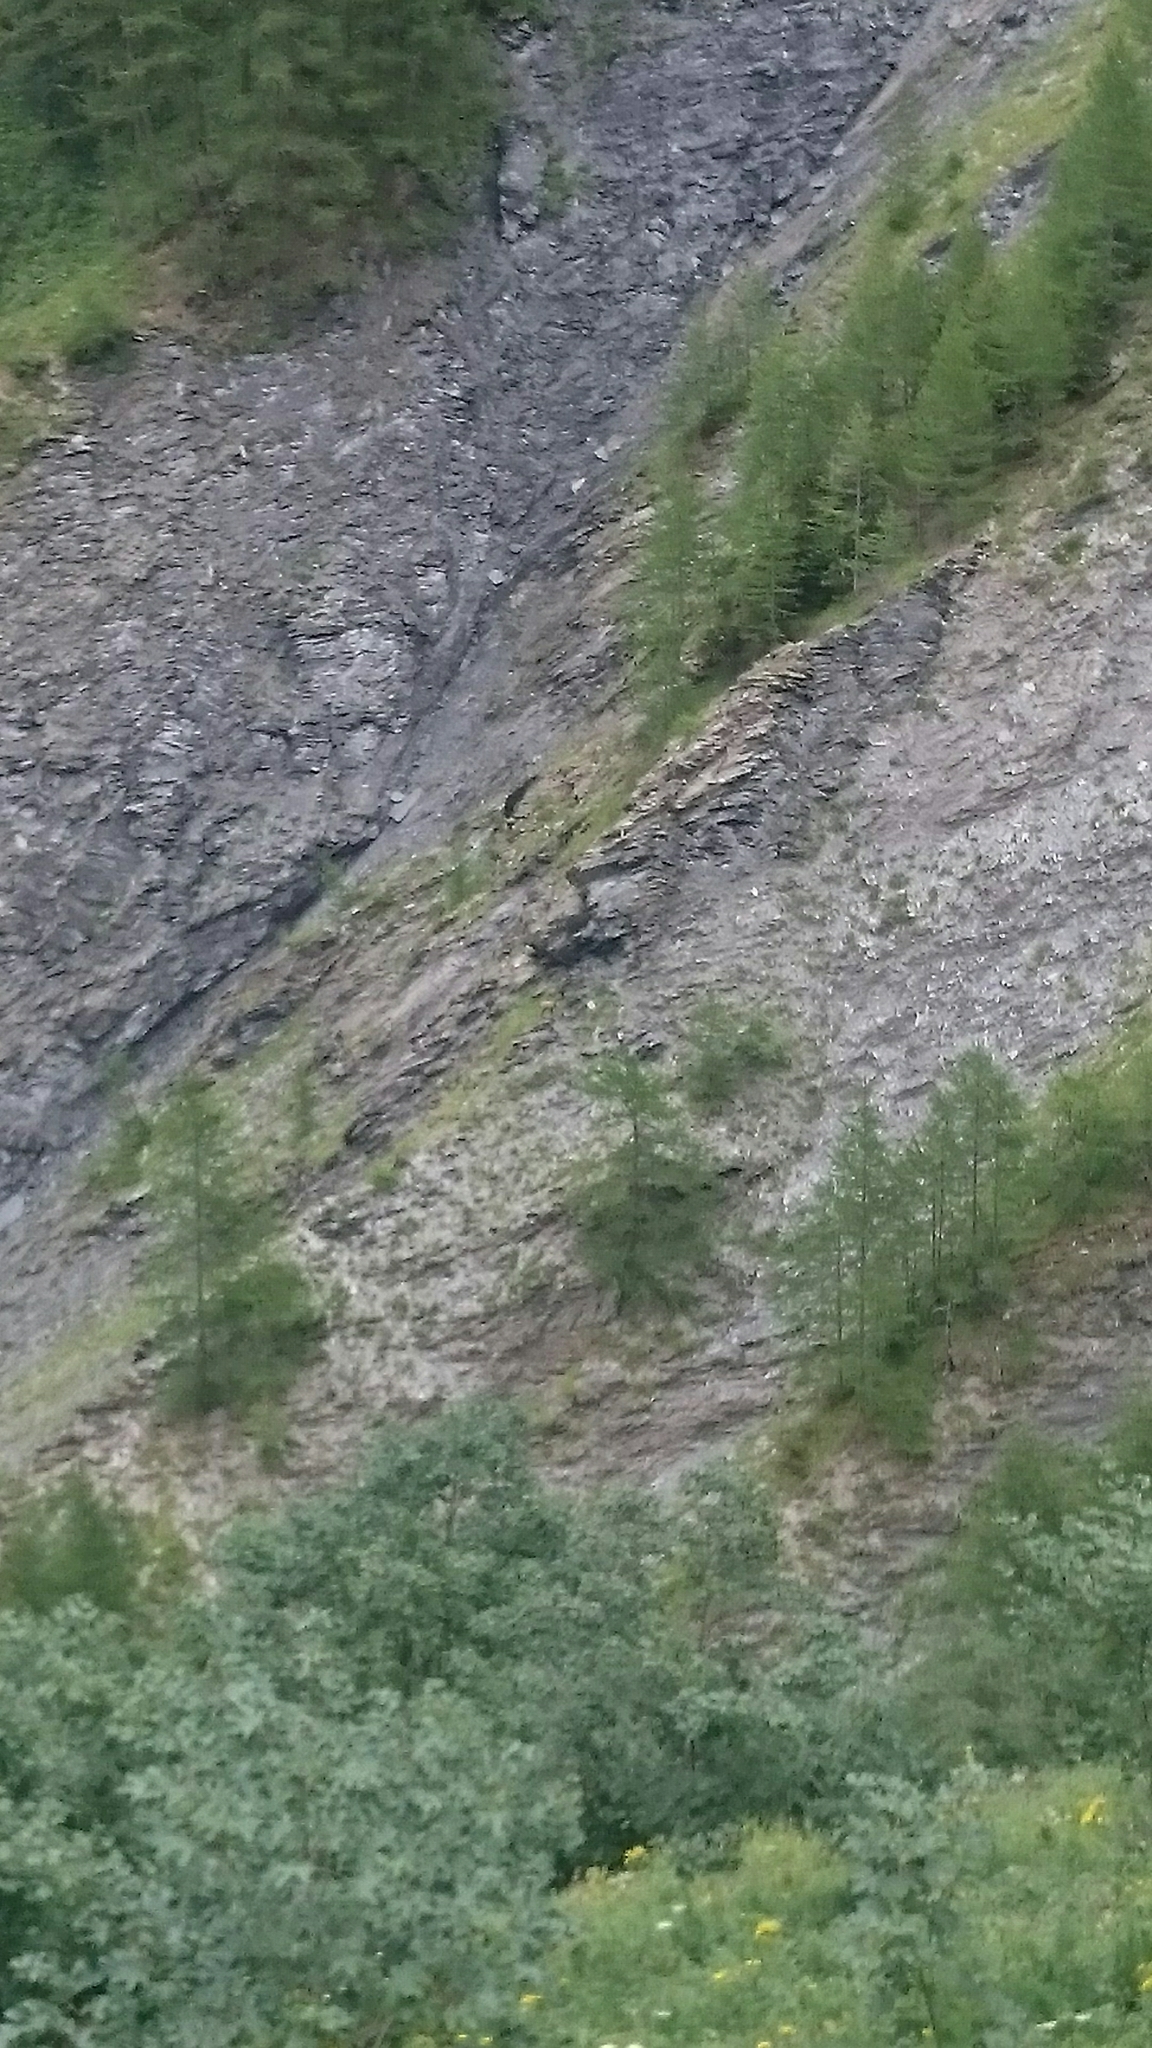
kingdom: Animalia
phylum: Chordata
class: Mammalia
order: Artiodactyla
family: Bovidae
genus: Rupicapra
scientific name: Rupicapra rupicapra
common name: Chamois
